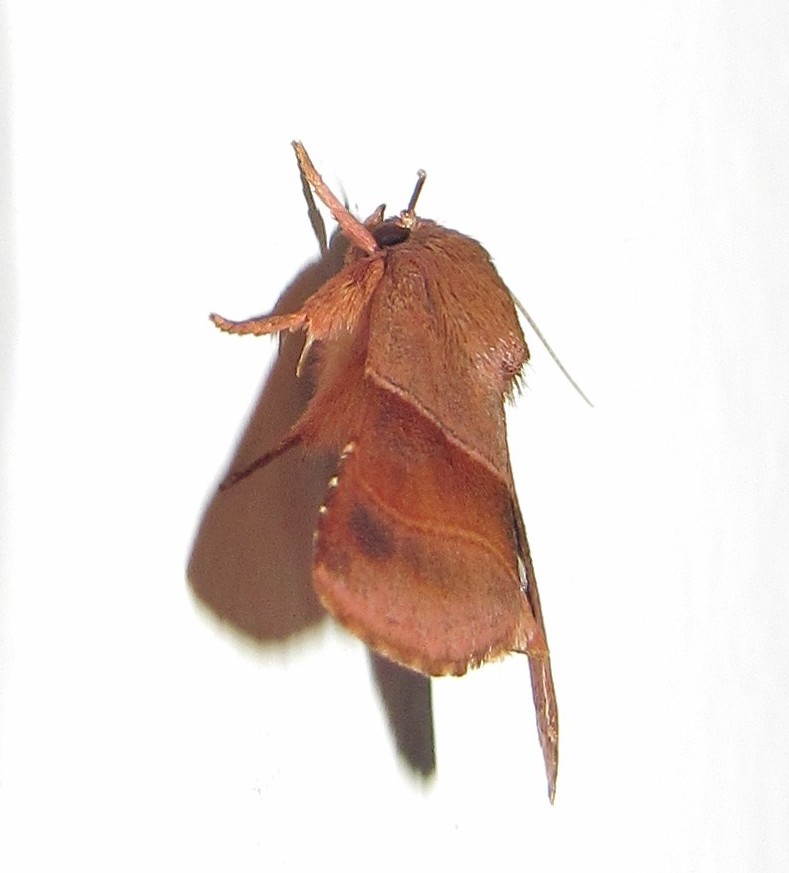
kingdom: Animalia
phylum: Arthropoda
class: Insecta
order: Lepidoptera
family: Noctuidae
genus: Phuphena
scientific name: Phuphena transversa
